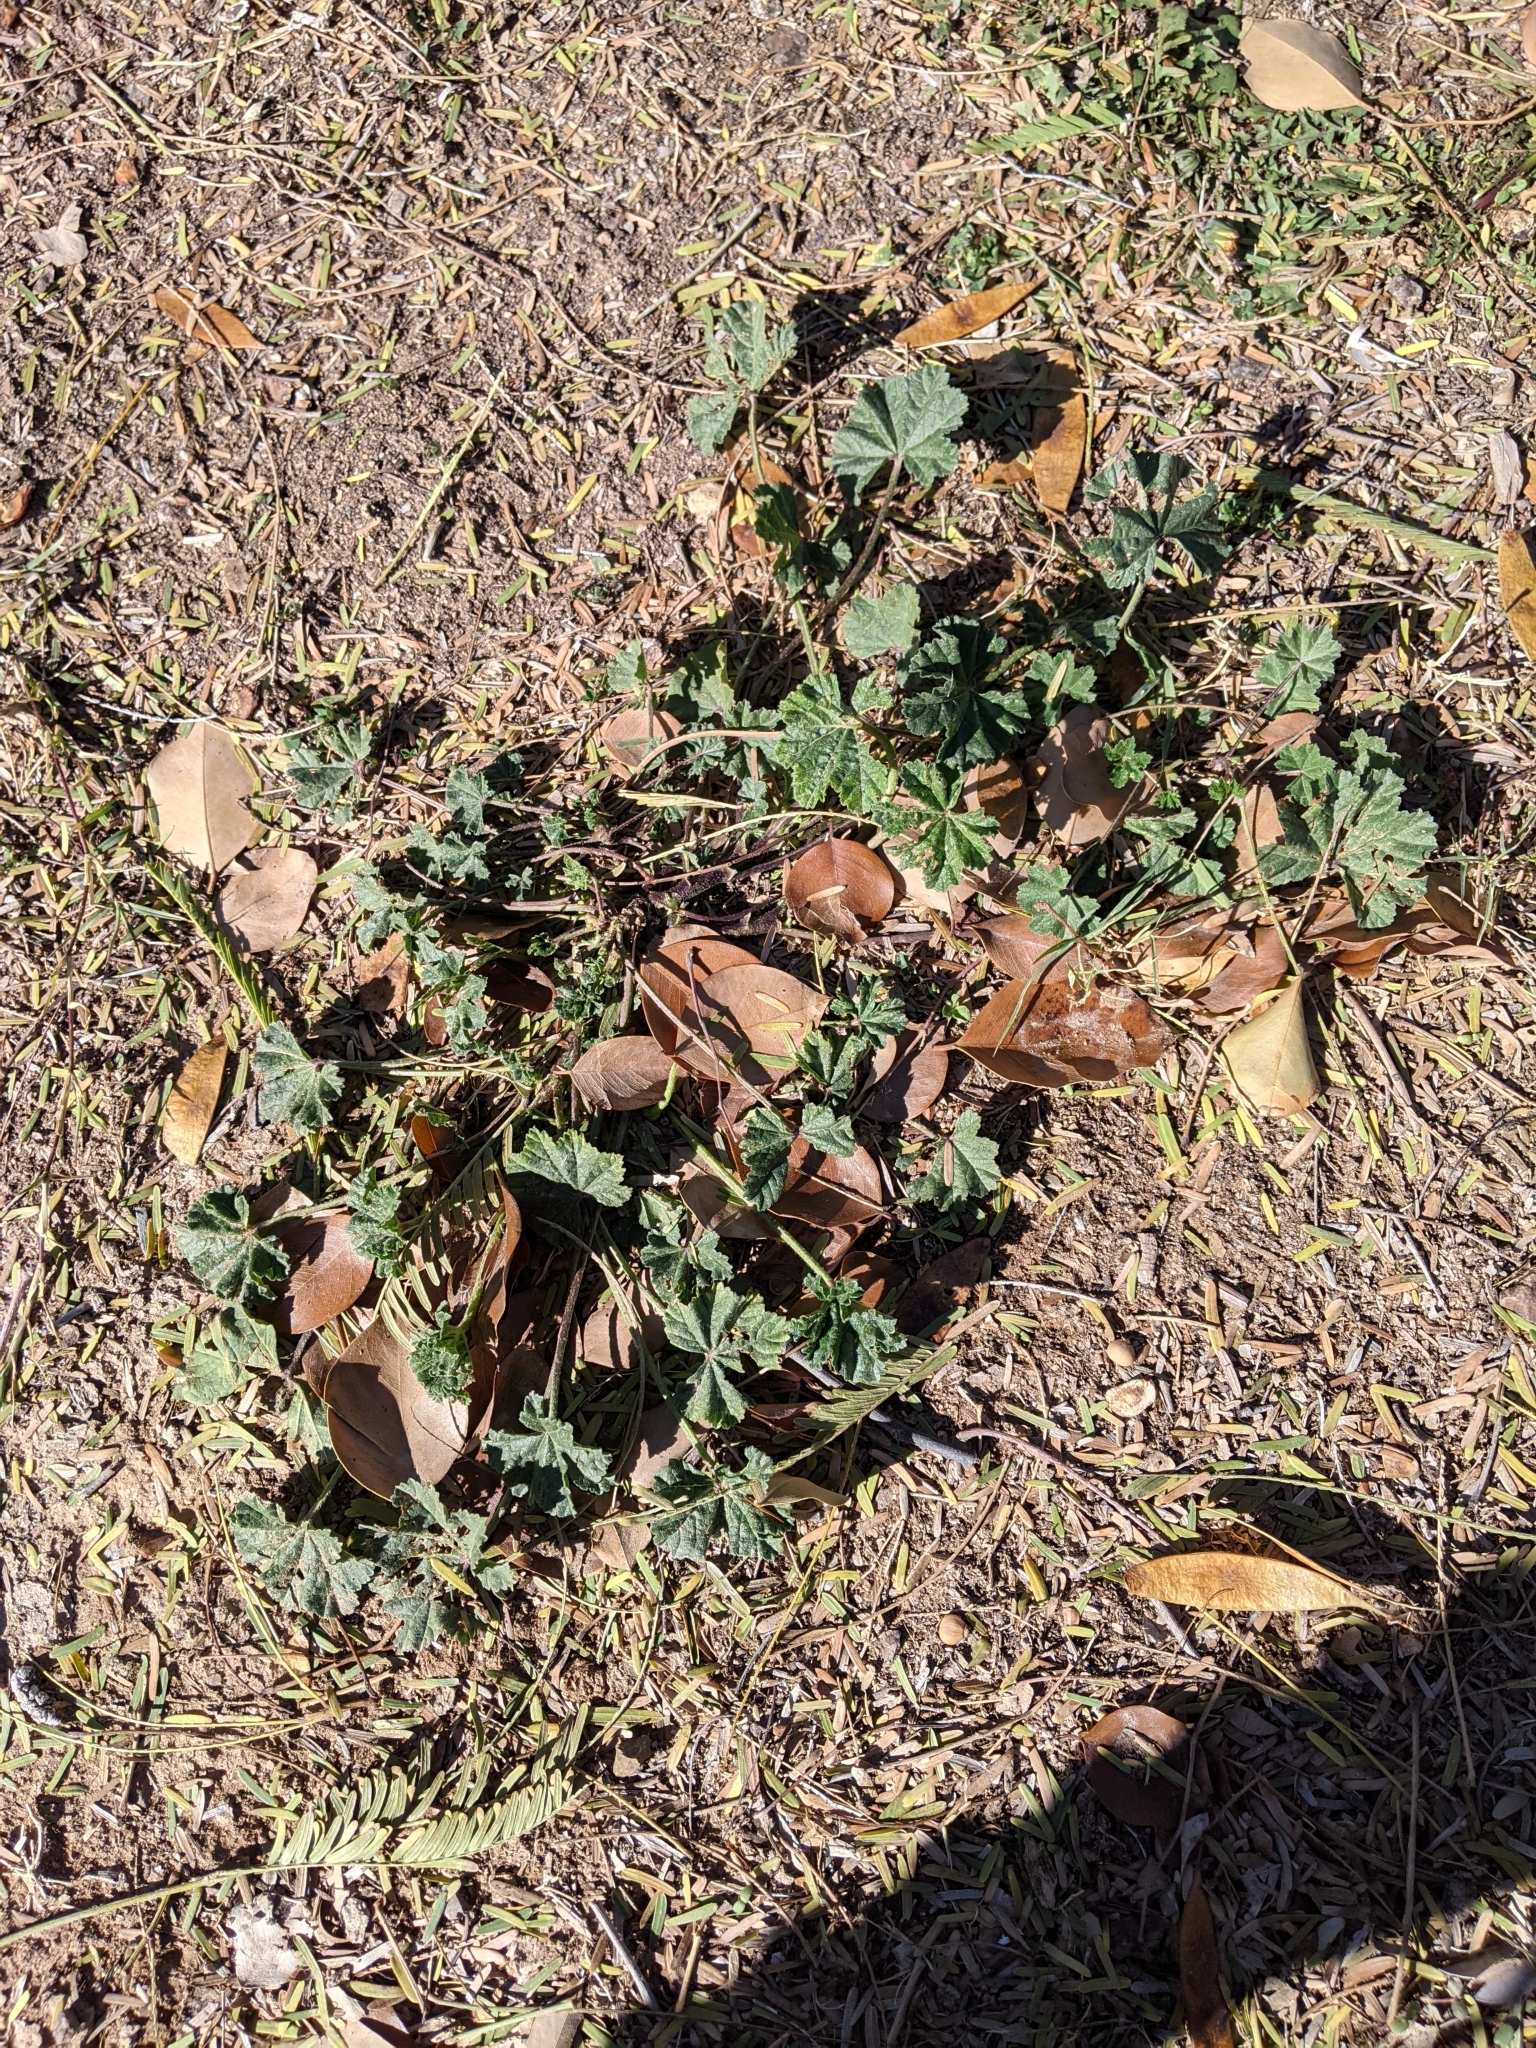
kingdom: Plantae
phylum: Tracheophyta
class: Magnoliopsida
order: Malvales
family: Malvaceae
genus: Malva
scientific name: Malva parviflora
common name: Least mallow
